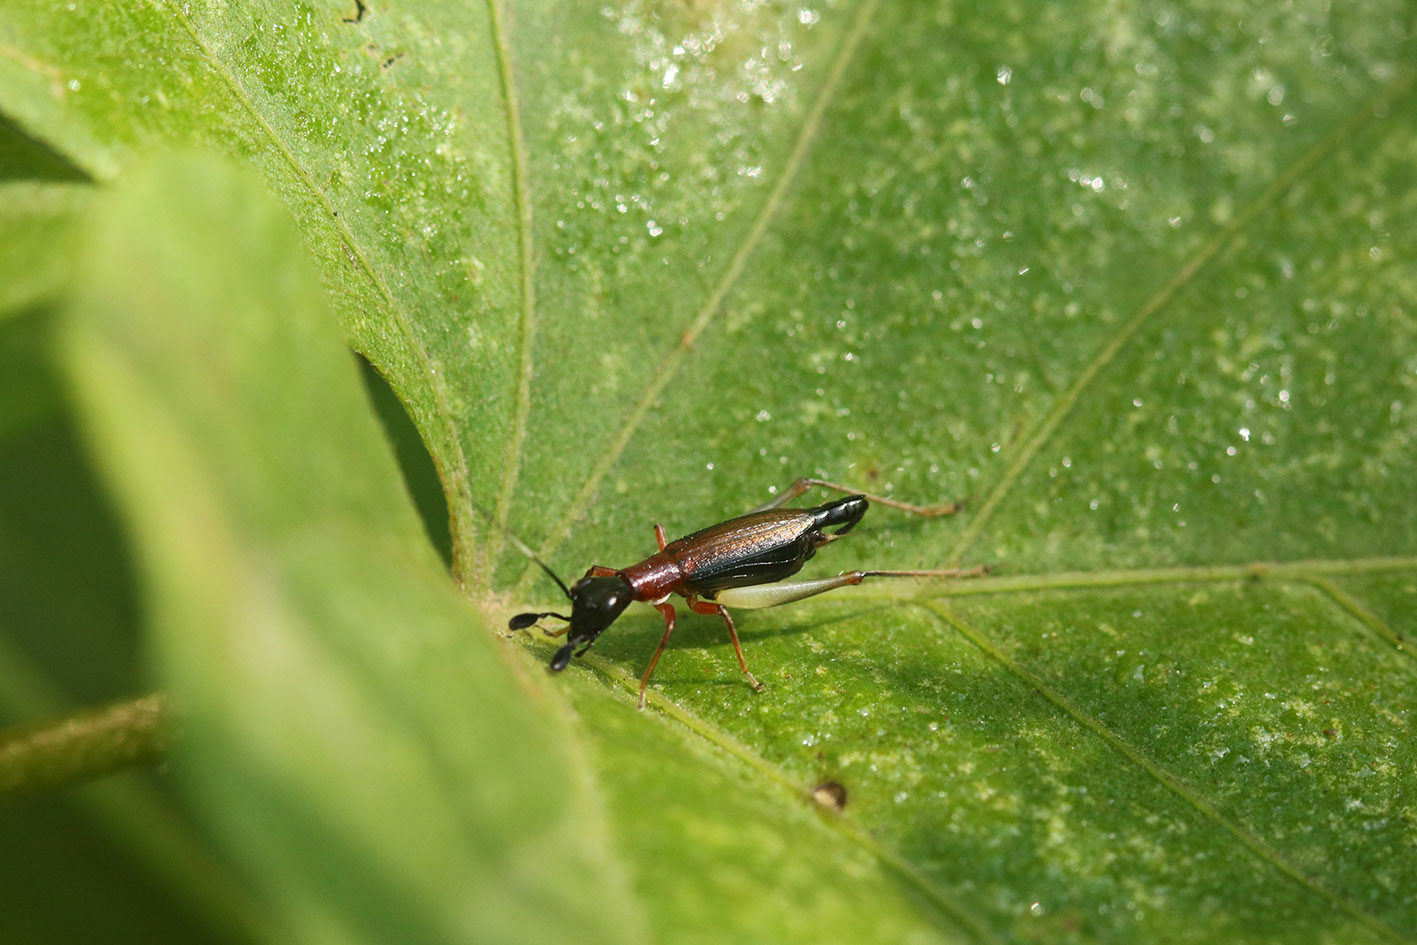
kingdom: Animalia
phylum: Arthropoda
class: Insecta
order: Orthoptera
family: Trigonidiidae
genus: Cranistus
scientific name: Cranistus colliurides
